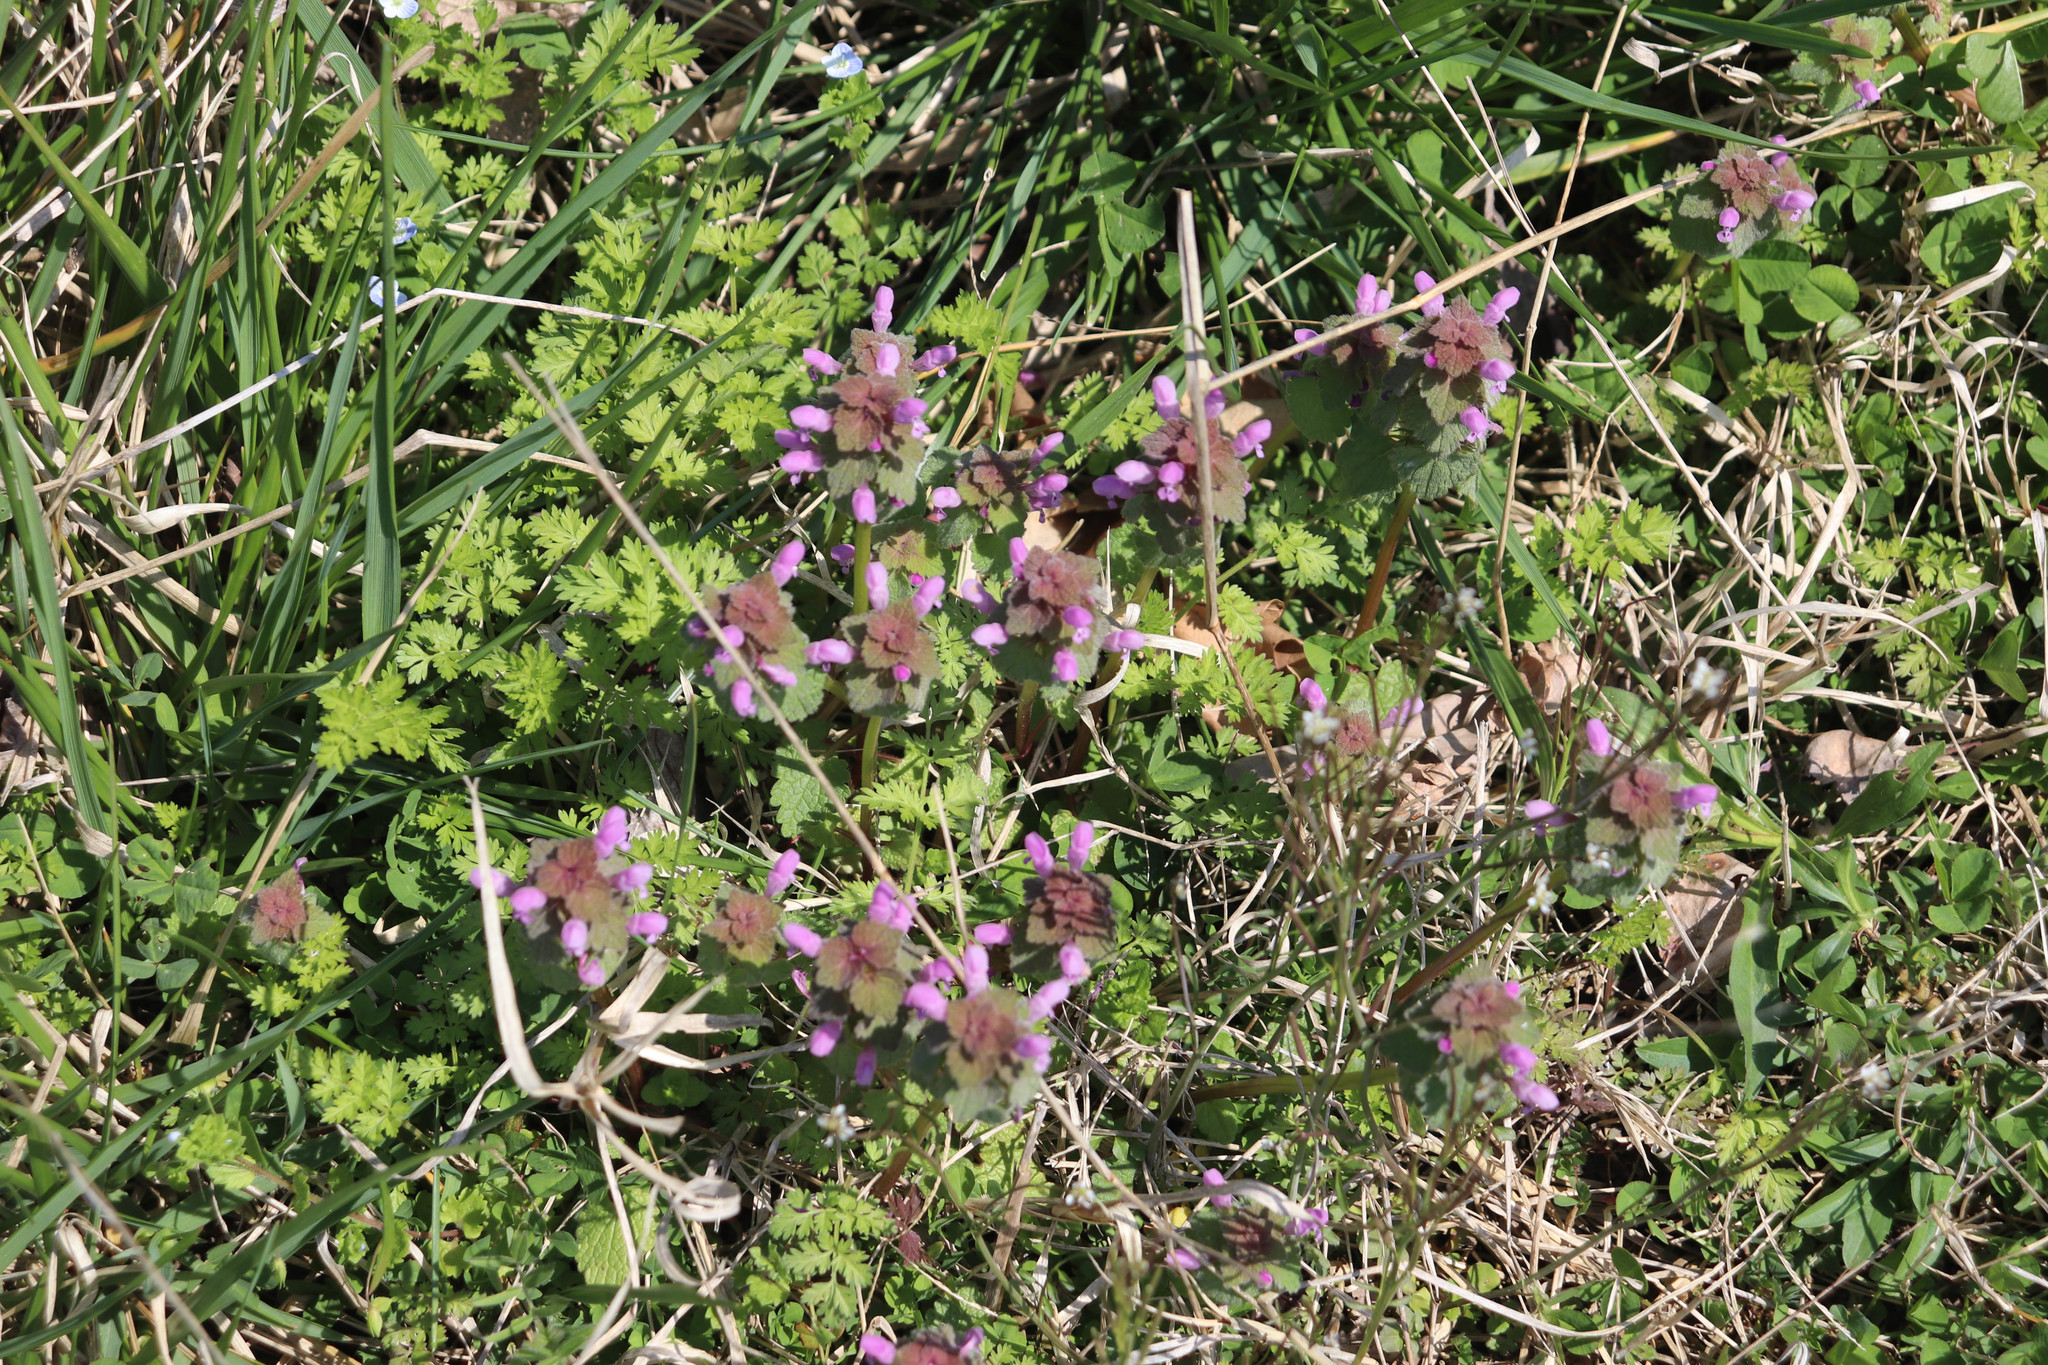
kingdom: Plantae
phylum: Tracheophyta
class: Magnoliopsida
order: Lamiales
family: Lamiaceae
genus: Lamium
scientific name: Lamium purpureum
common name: Red dead-nettle
